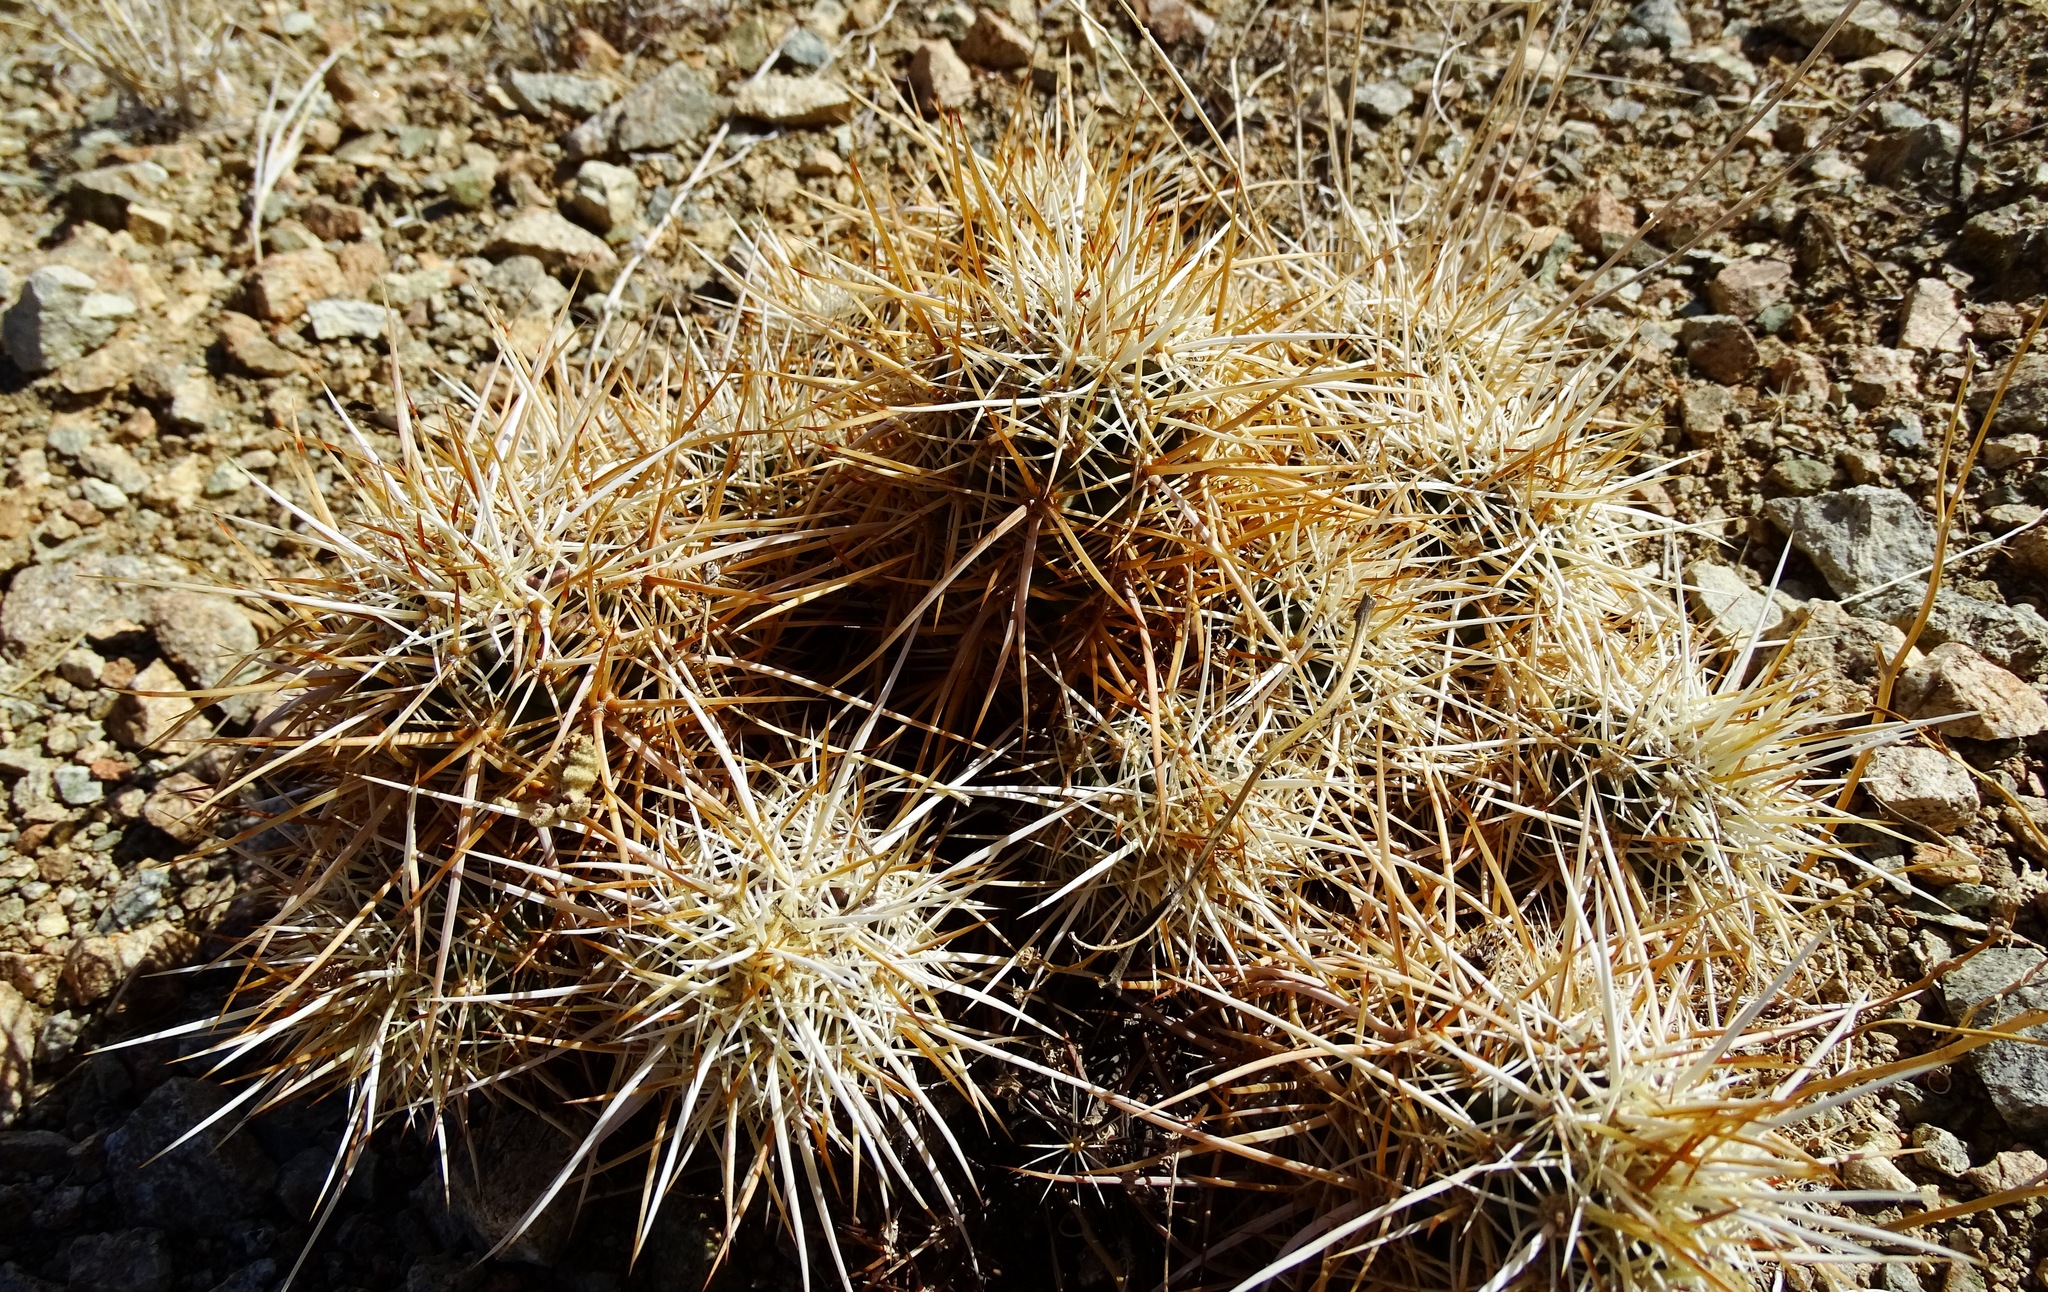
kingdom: Plantae
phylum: Tracheophyta
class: Magnoliopsida
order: Caryophyllales
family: Cactaceae
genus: Echinocereus
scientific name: Echinocereus engelmannii
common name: Engelmann's hedgehog cactus
